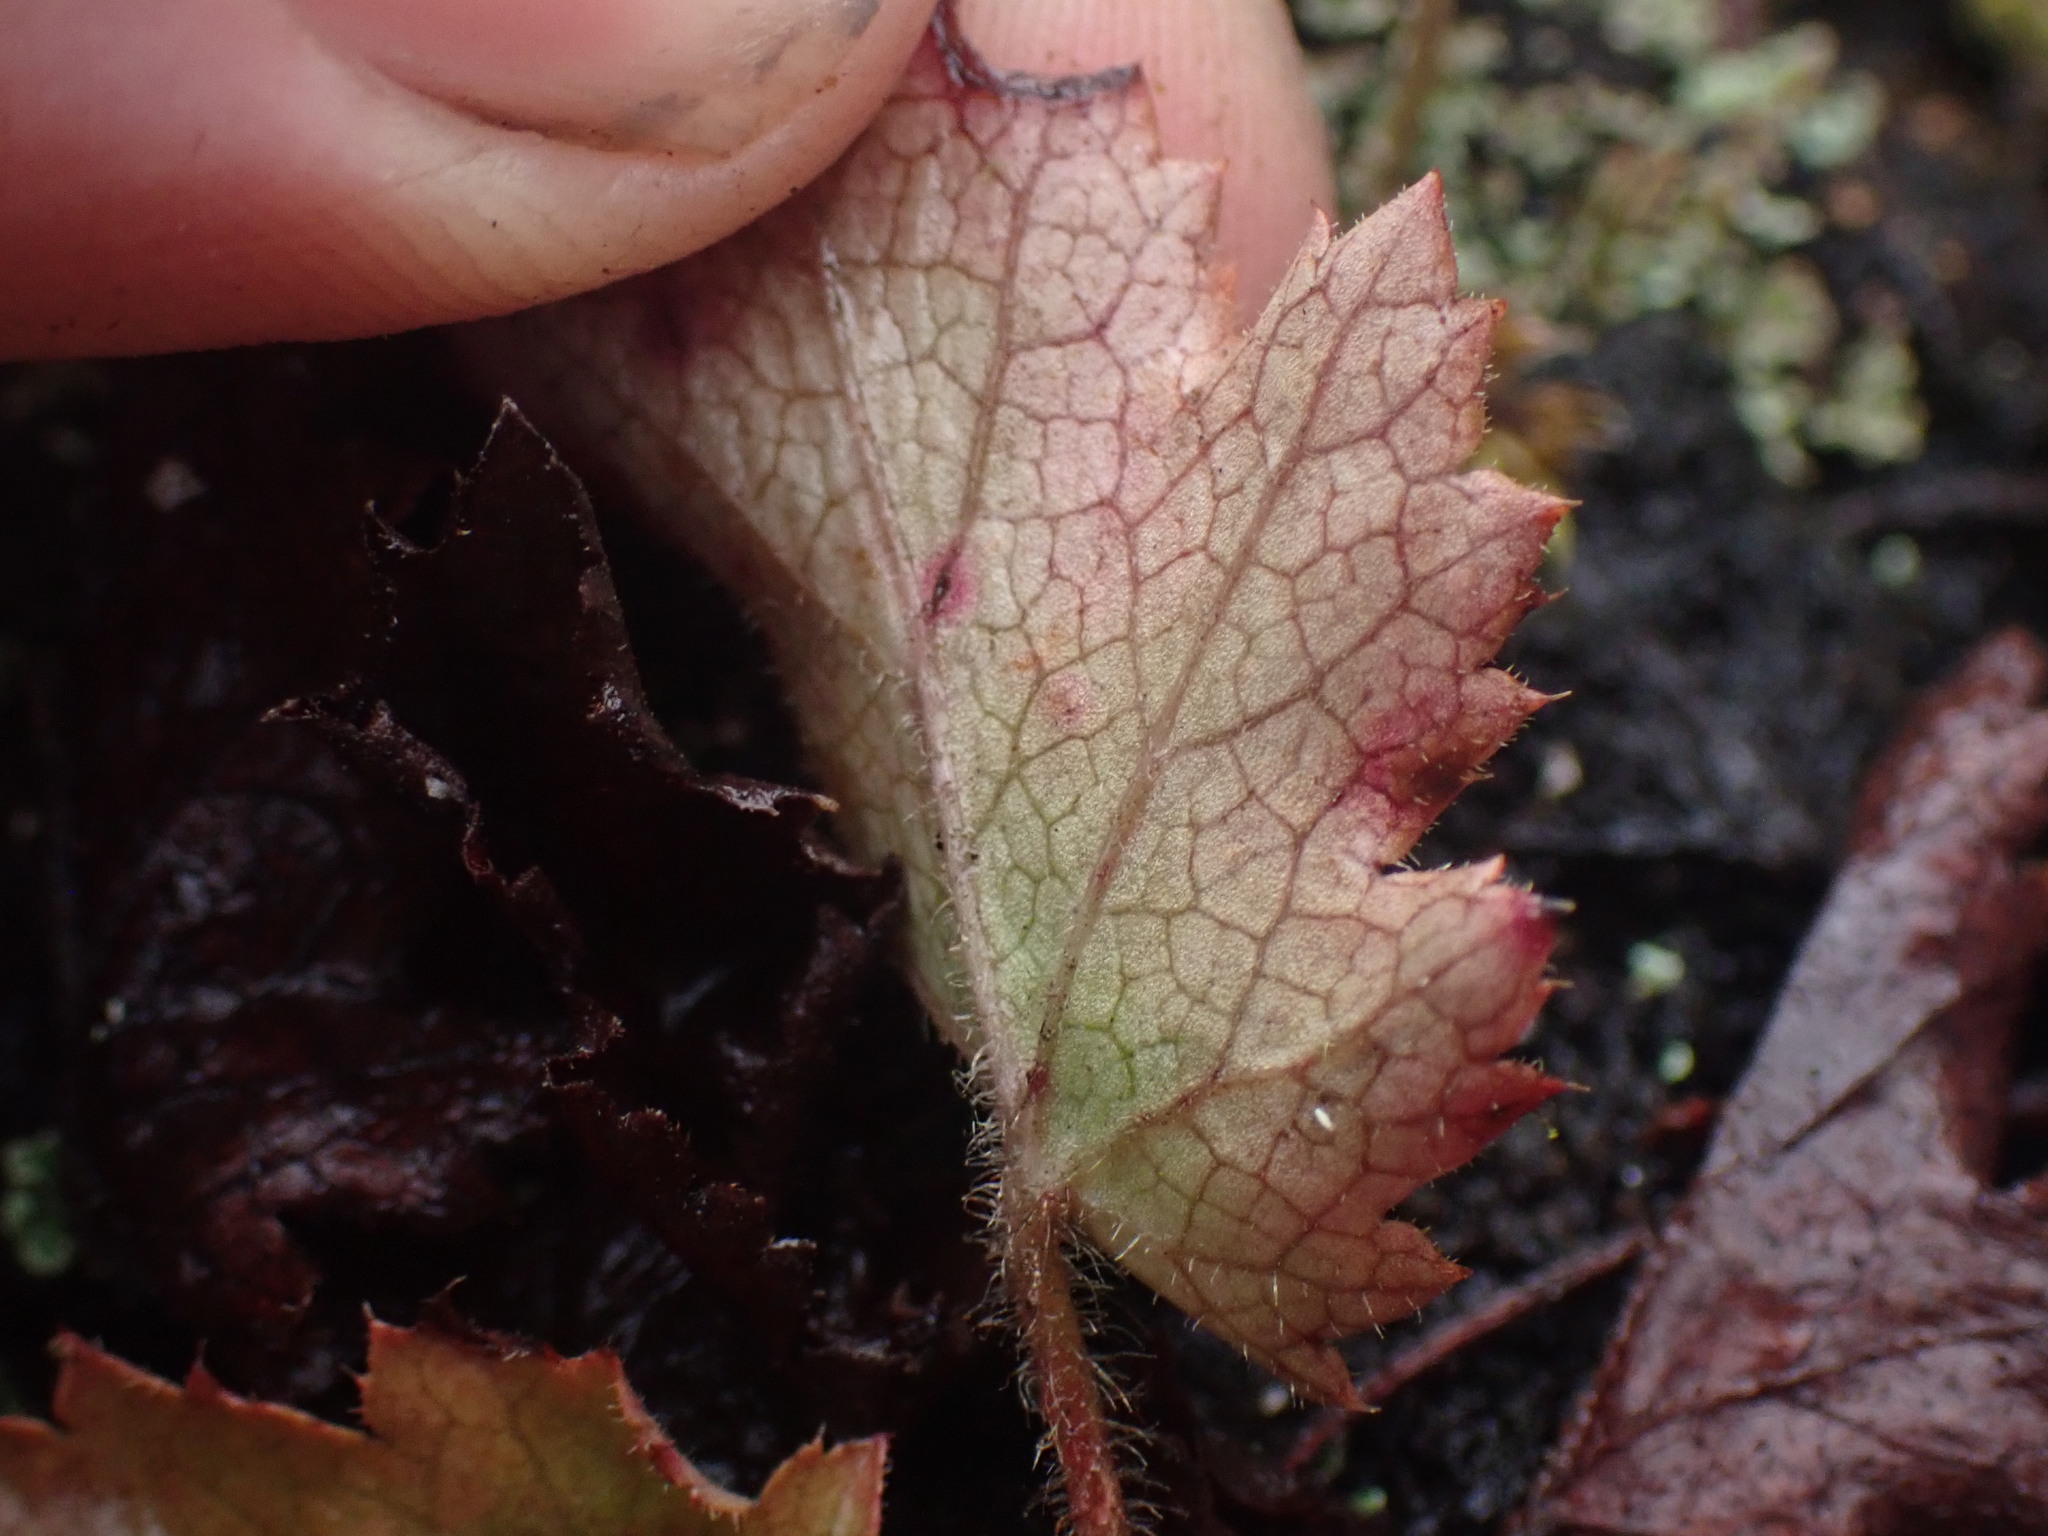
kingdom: Plantae
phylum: Tracheophyta
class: Magnoliopsida
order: Saxifragales
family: Saxifragaceae
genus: Heuchera
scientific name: Heuchera micrantha
